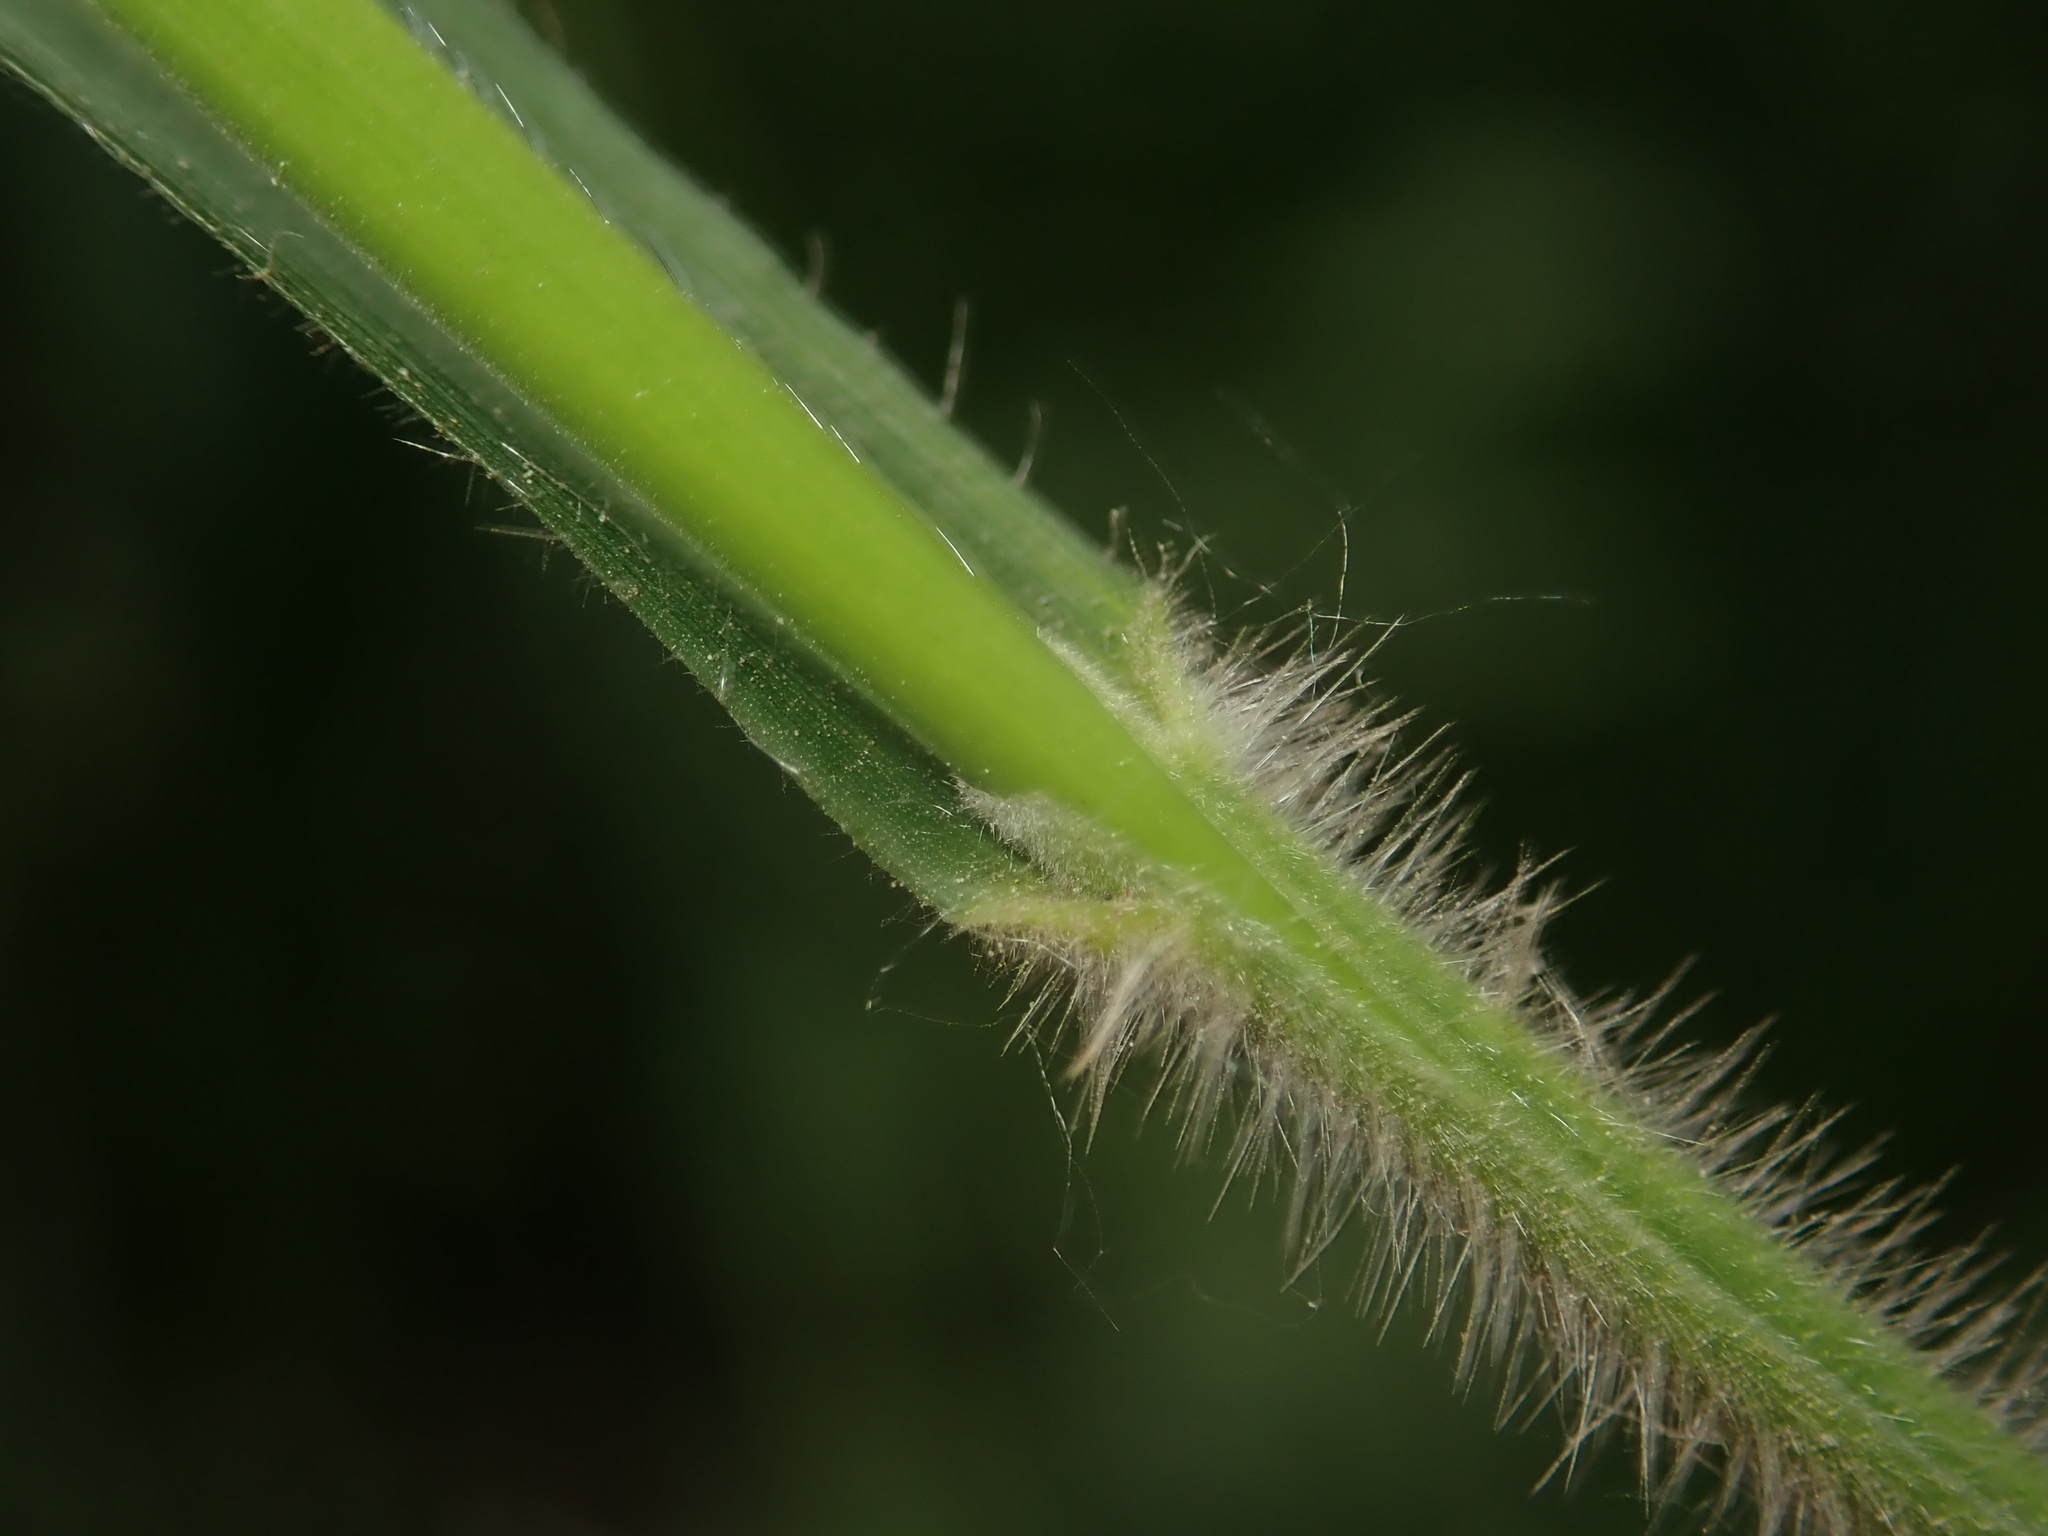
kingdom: Plantae
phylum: Tracheophyta
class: Liliopsida
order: Poales
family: Poaceae
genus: Milium
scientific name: Milium effusum
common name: Wood millet
